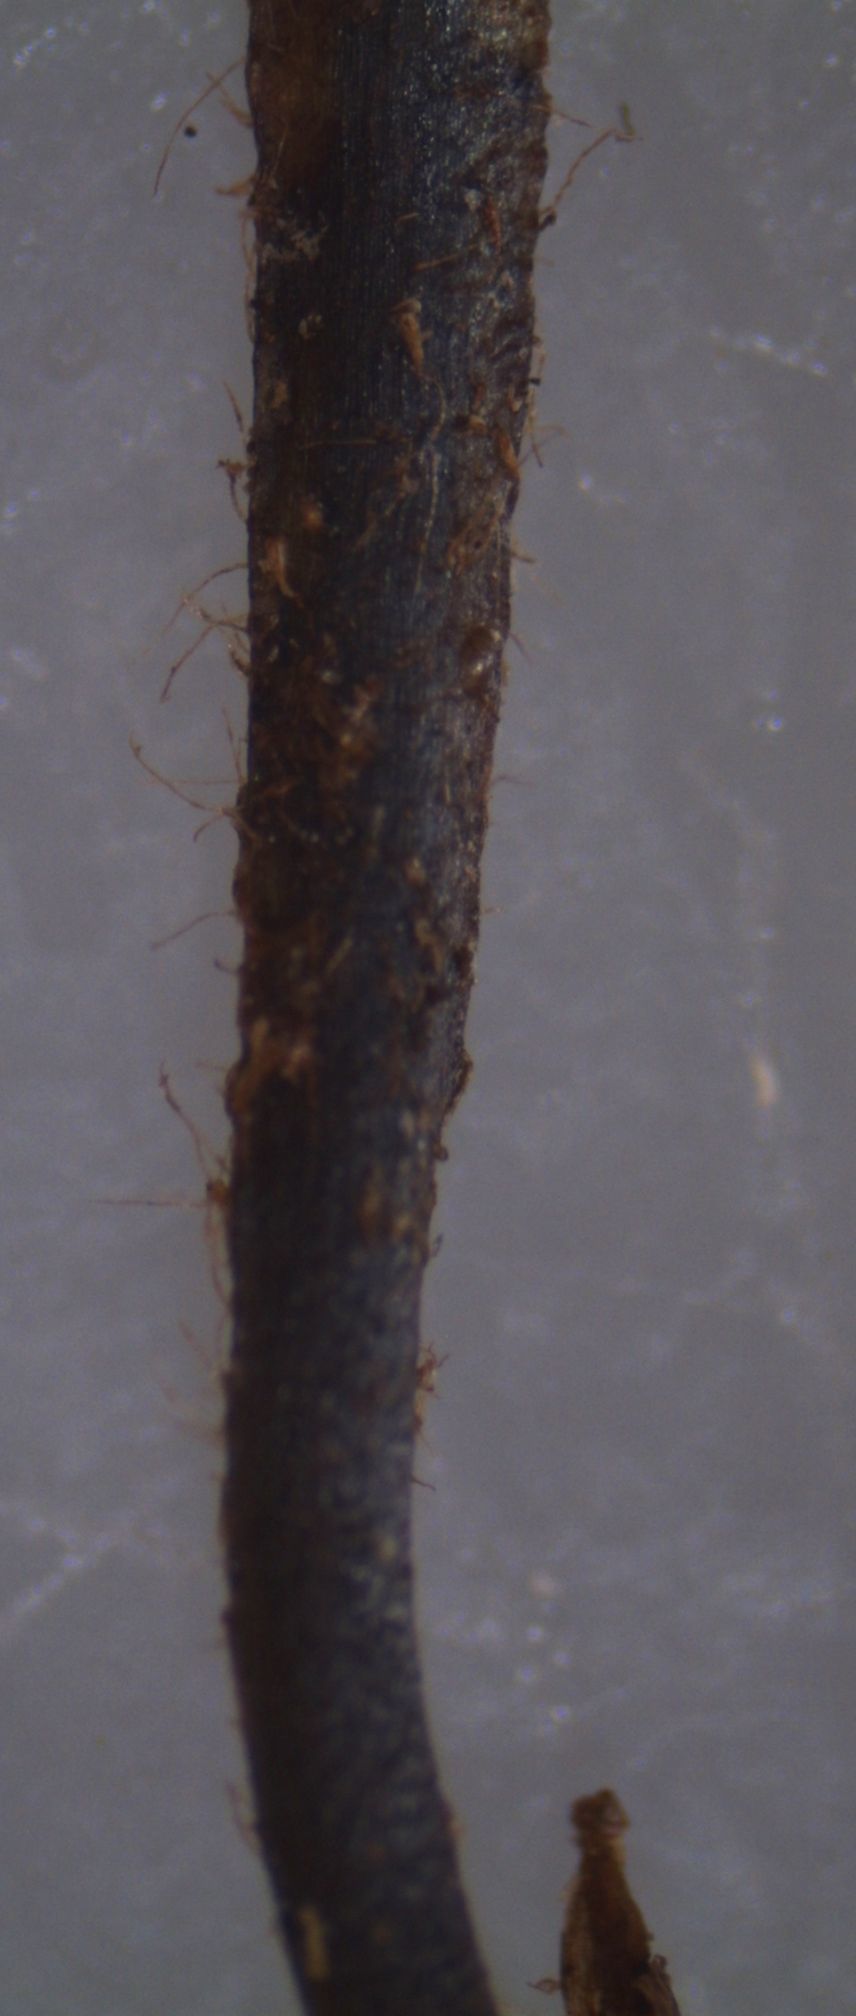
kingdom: Plantae
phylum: Tracheophyta
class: Polypodiopsida
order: Polypodiales
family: Polypodiaceae
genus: Notogrammitis
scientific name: Notogrammitis billardierei
